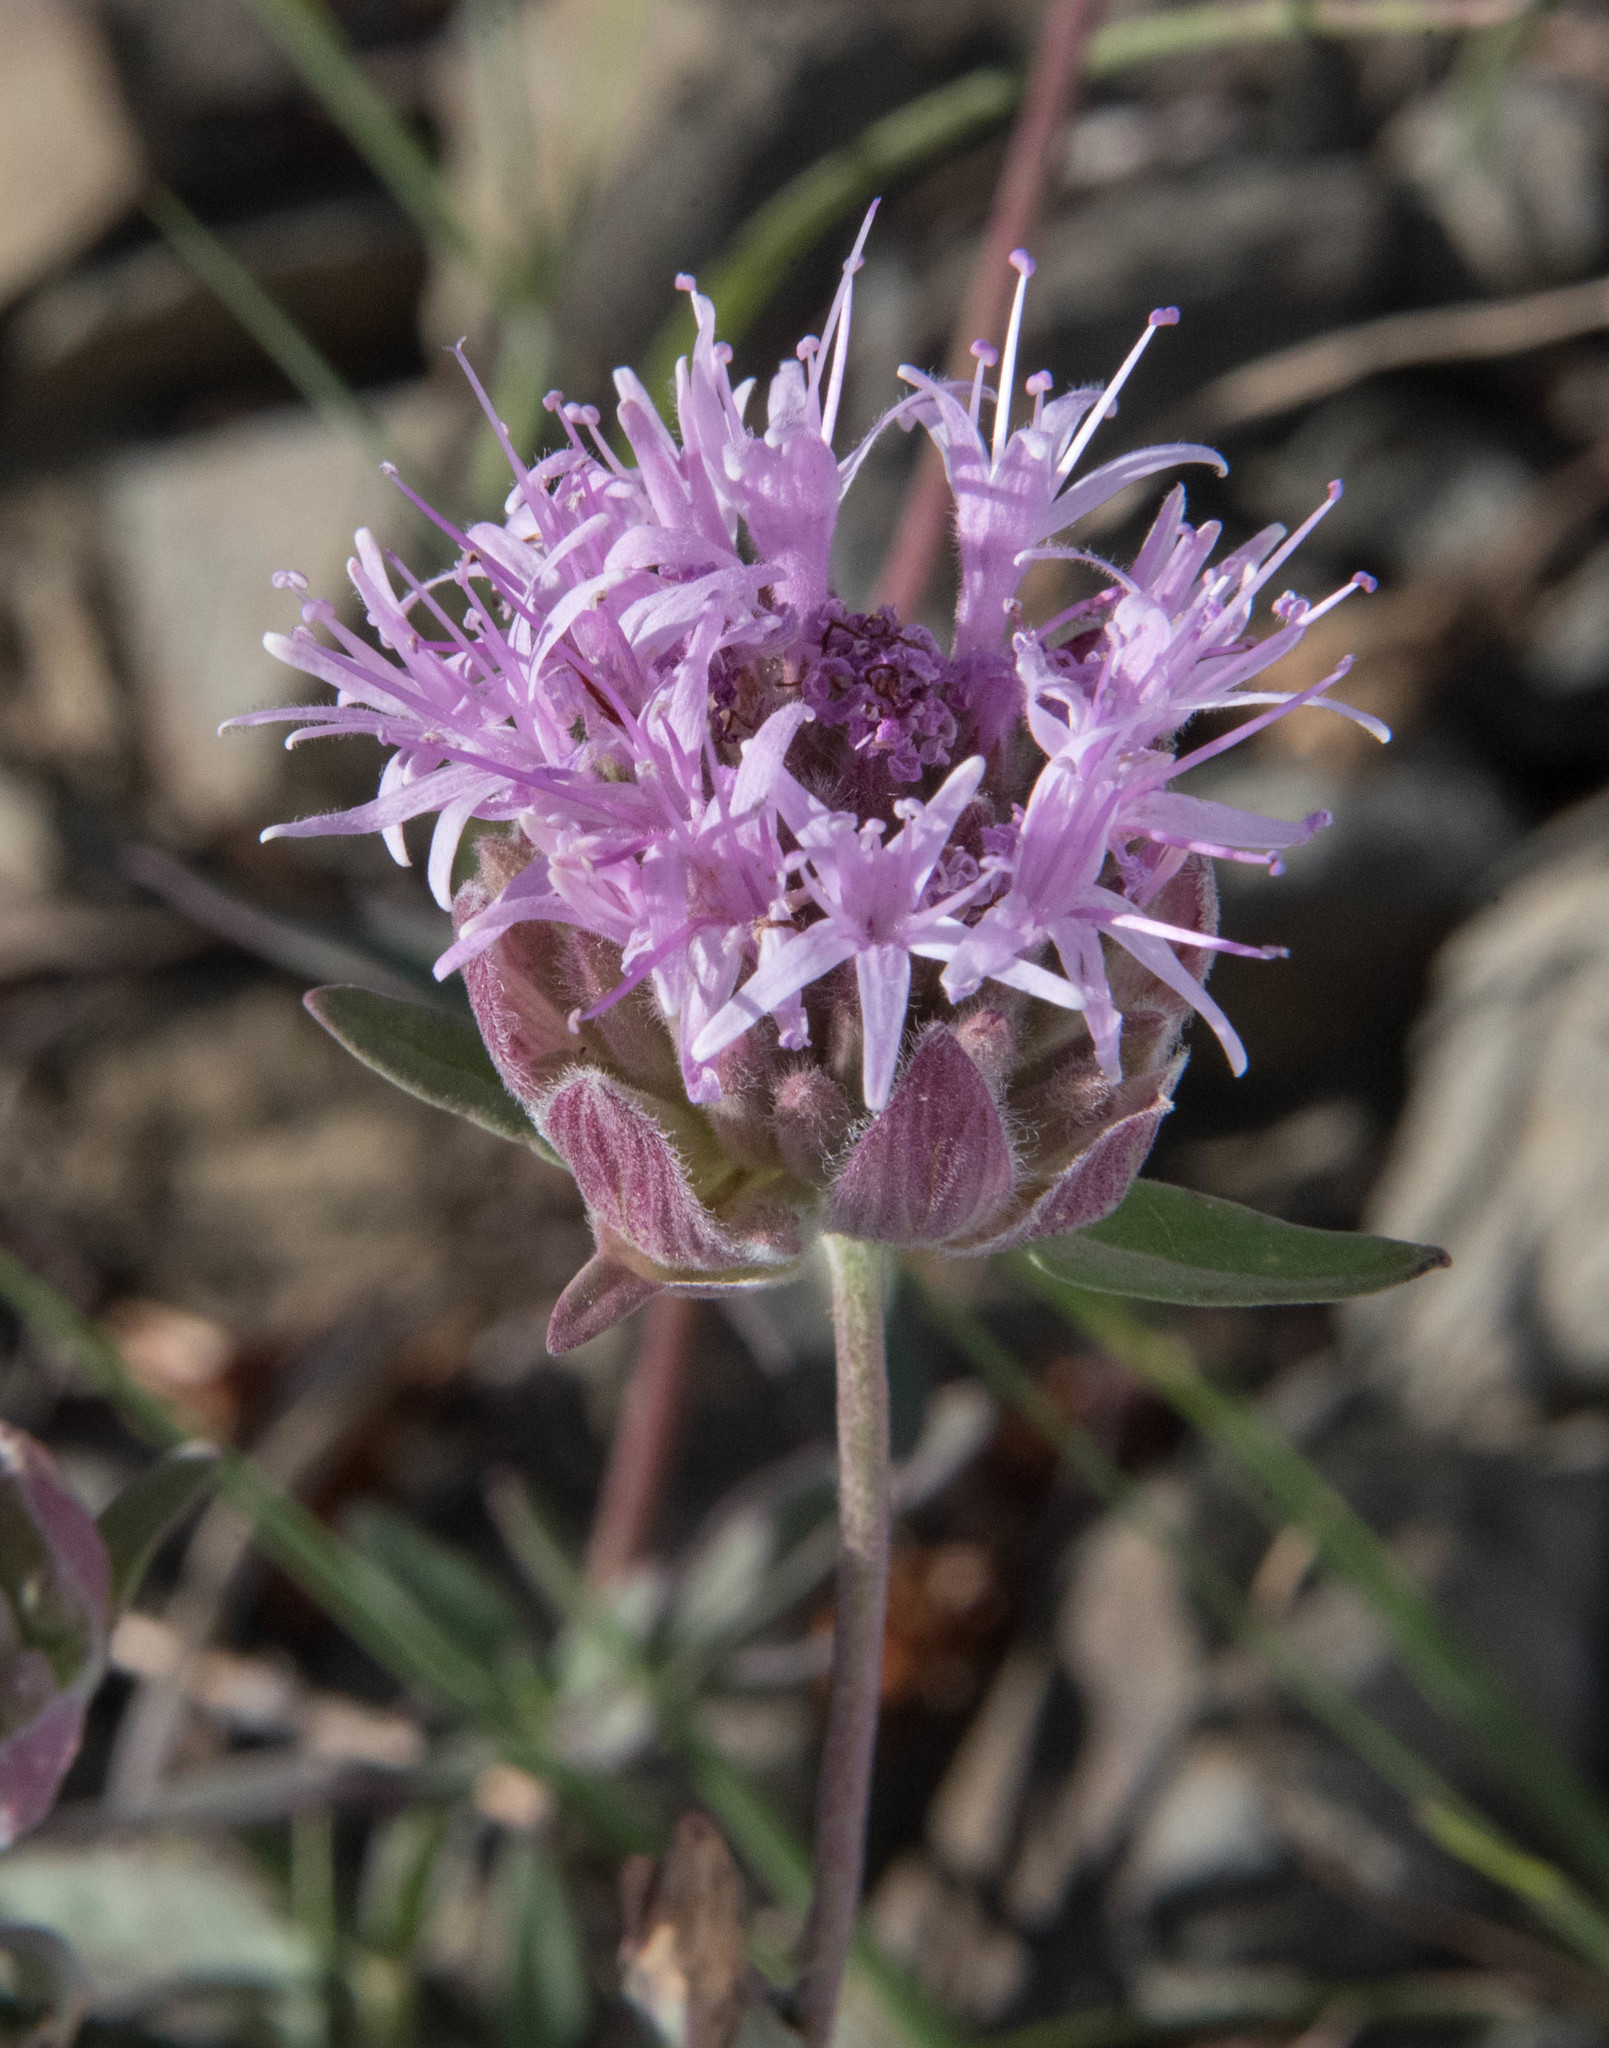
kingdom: Plantae
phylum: Tracheophyta
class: Magnoliopsida
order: Lamiales
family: Lamiaceae
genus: Monardella
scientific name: Monardella sheltonii
